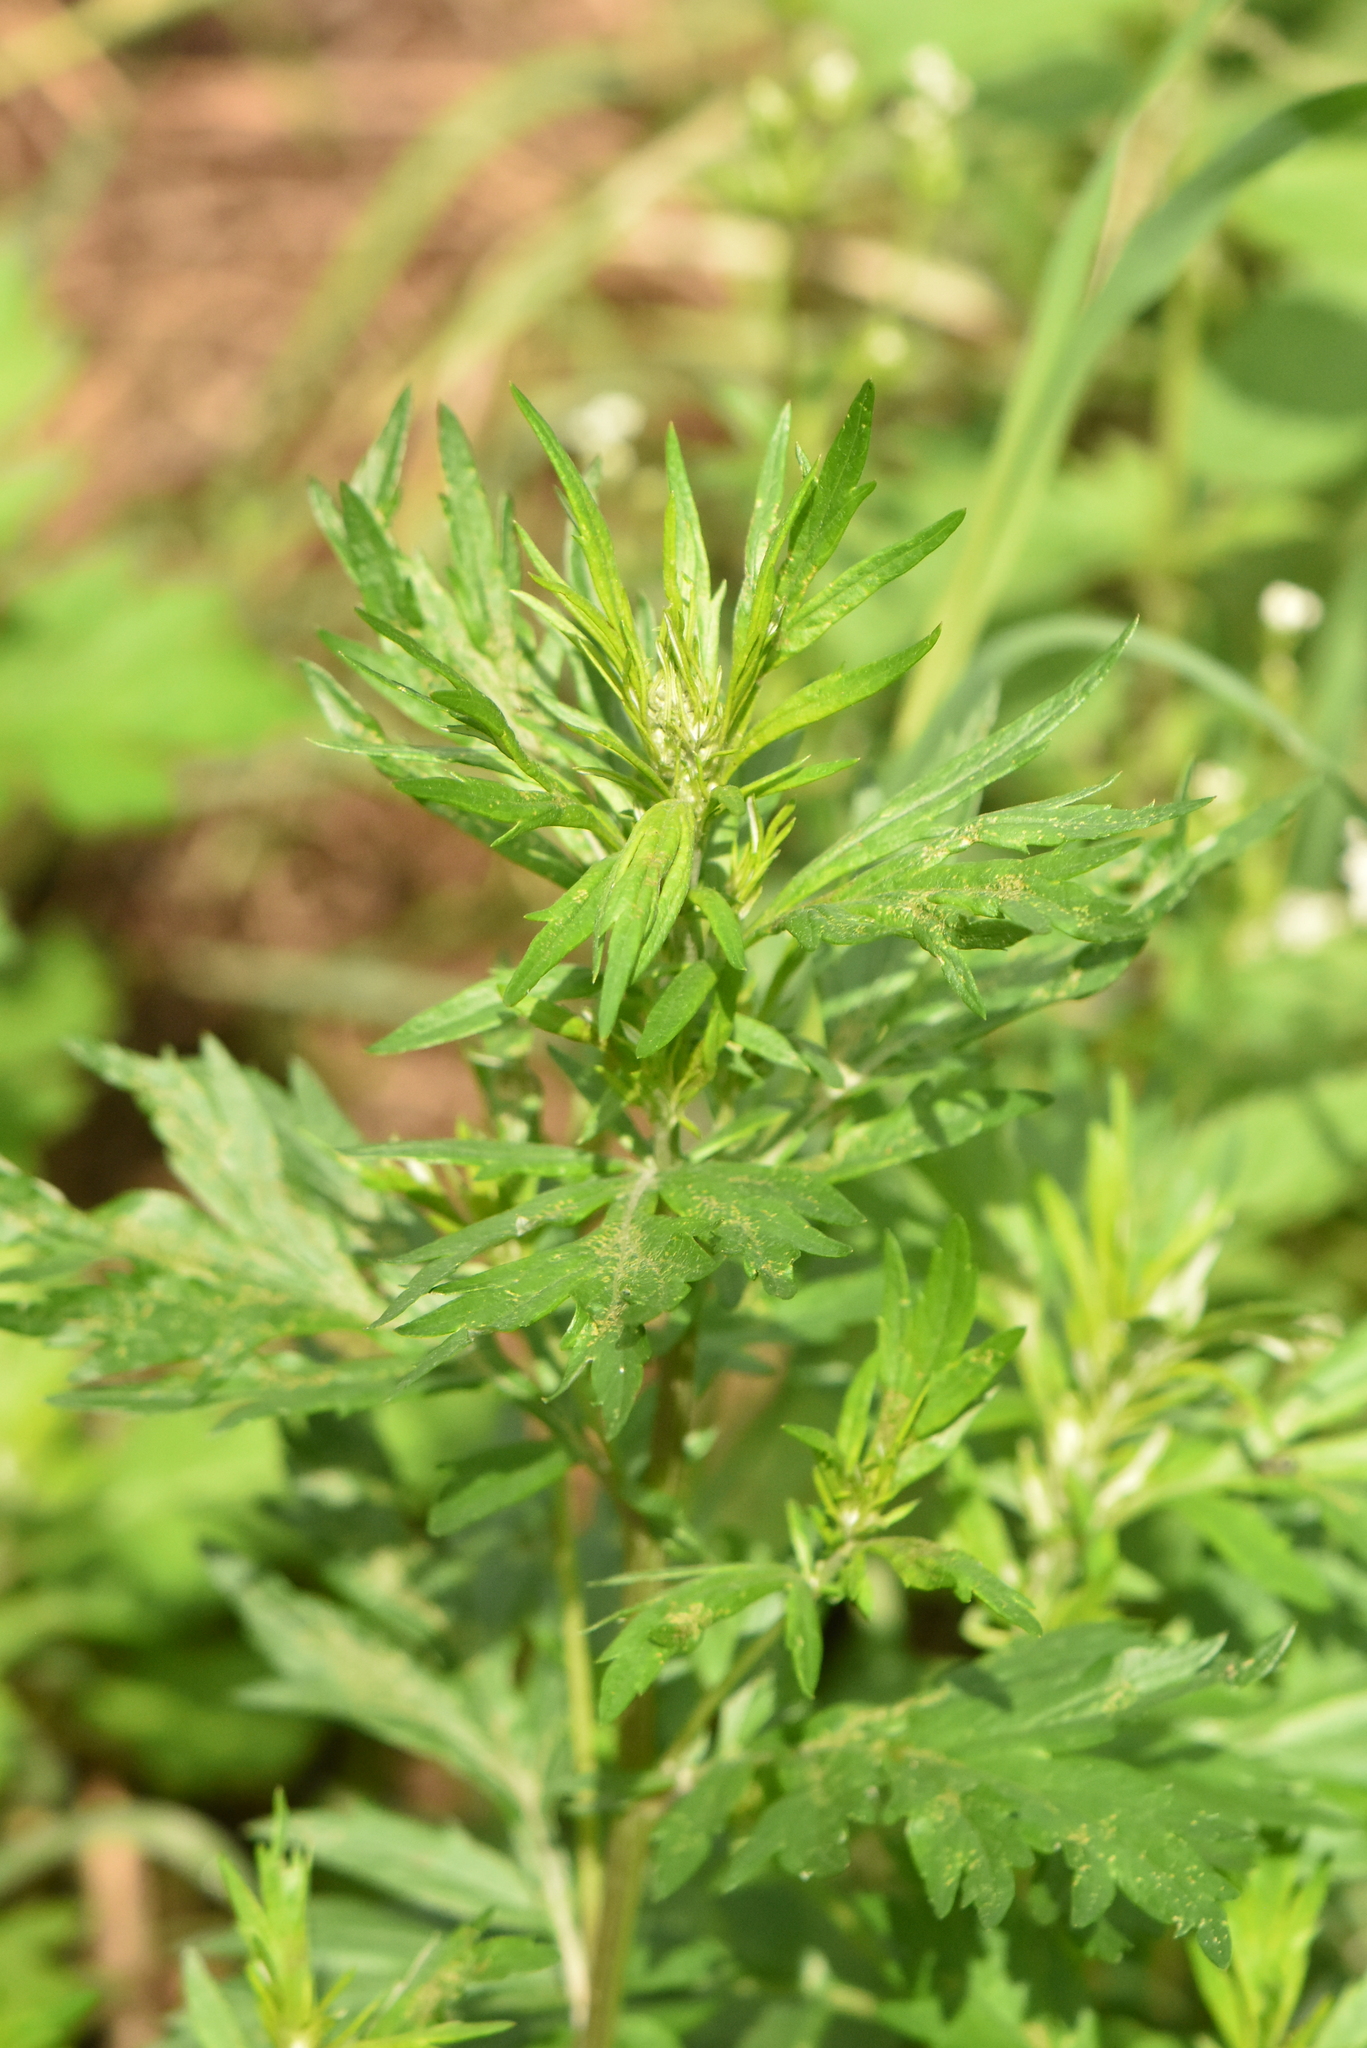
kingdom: Plantae
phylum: Tracheophyta
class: Magnoliopsida
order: Asterales
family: Asteraceae
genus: Artemisia
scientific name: Artemisia vulgaris
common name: Mugwort
